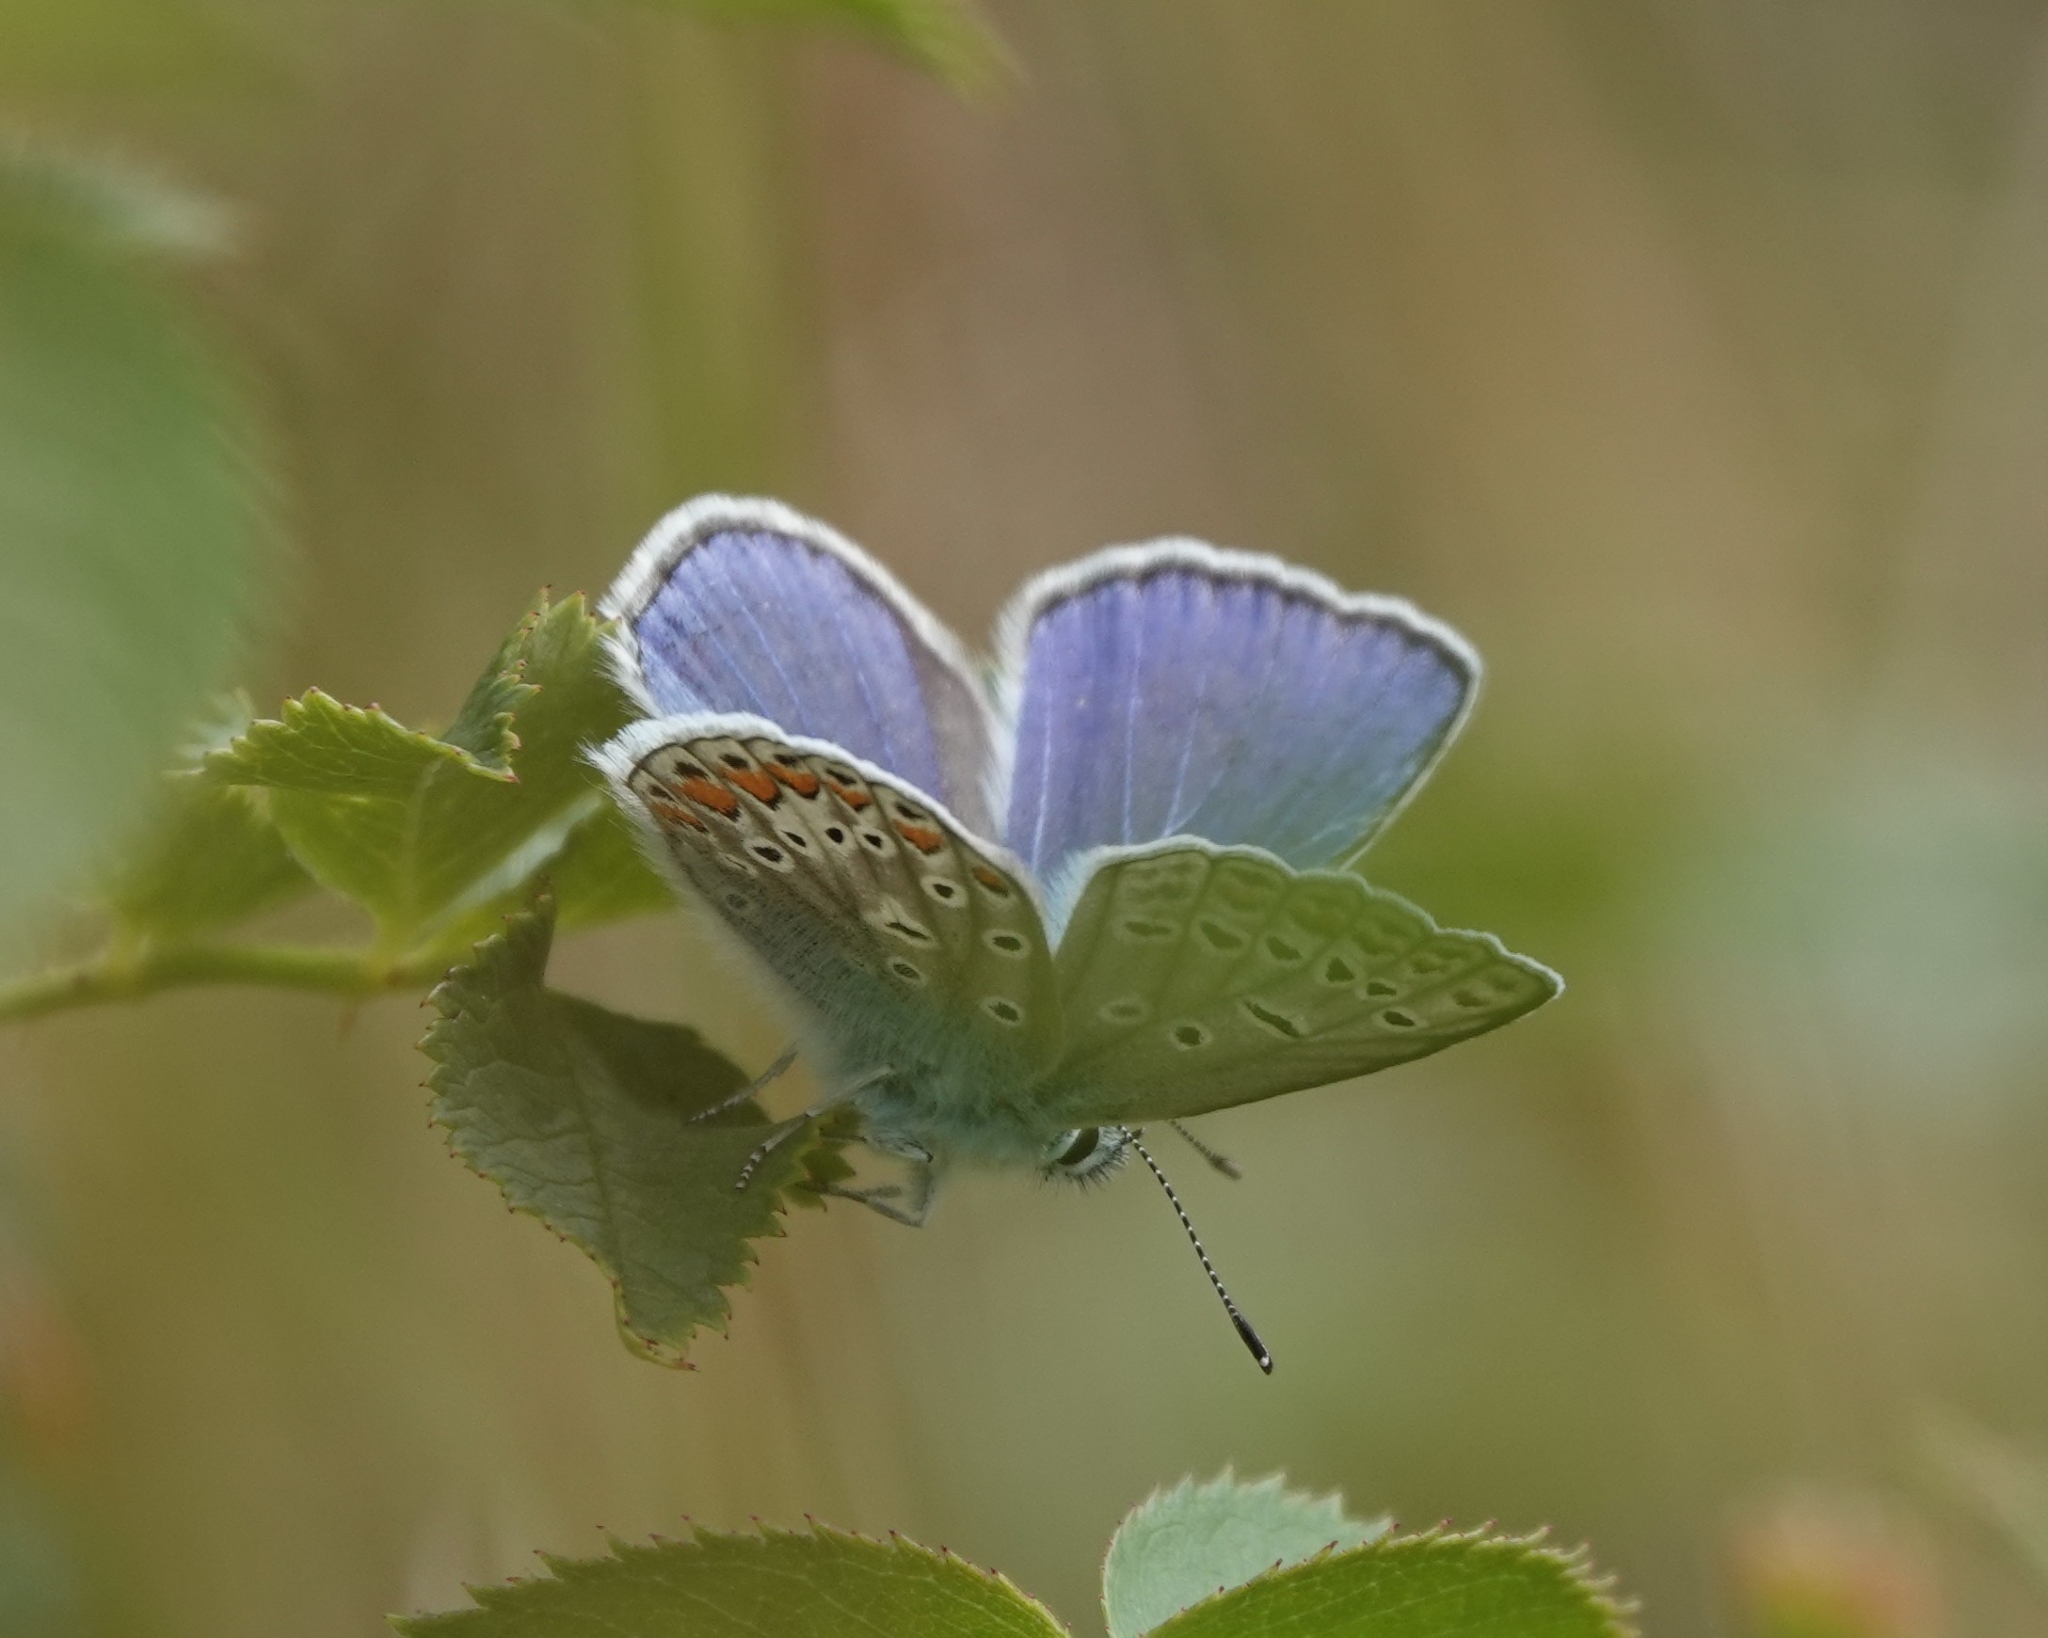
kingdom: Animalia
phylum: Arthropoda
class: Insecta
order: Lepidoptera
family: Lycaenidae
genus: Polyommatus
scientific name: Polyommatus icarus
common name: Common blue
